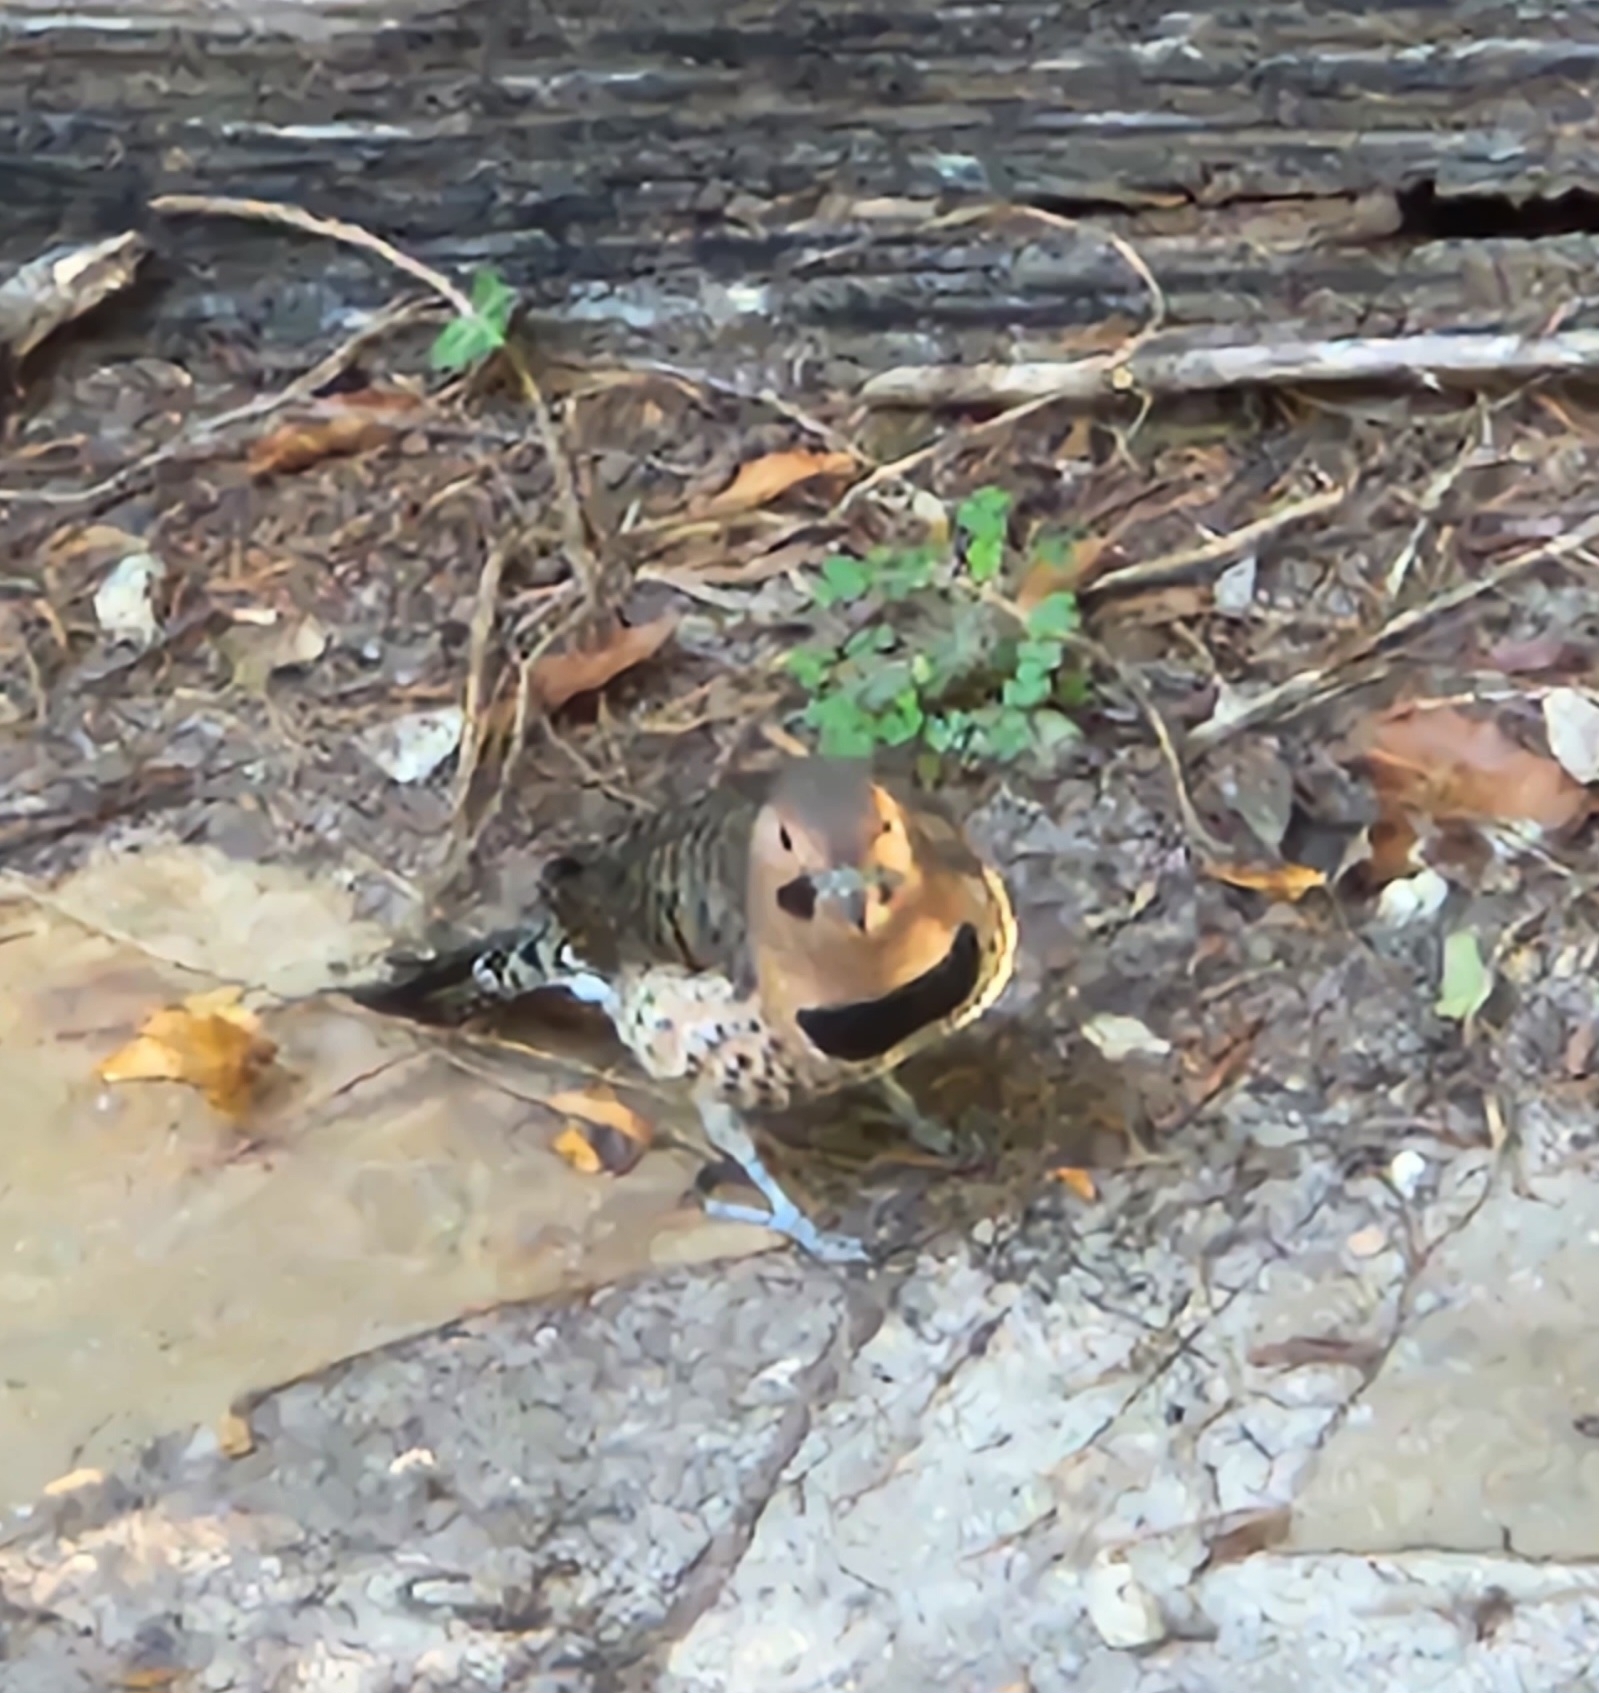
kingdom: Animalia
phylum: Chordata
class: Aves
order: Piciformes
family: Picidae
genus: Colaptes
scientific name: Colaptes auratus
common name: Northern flicker
